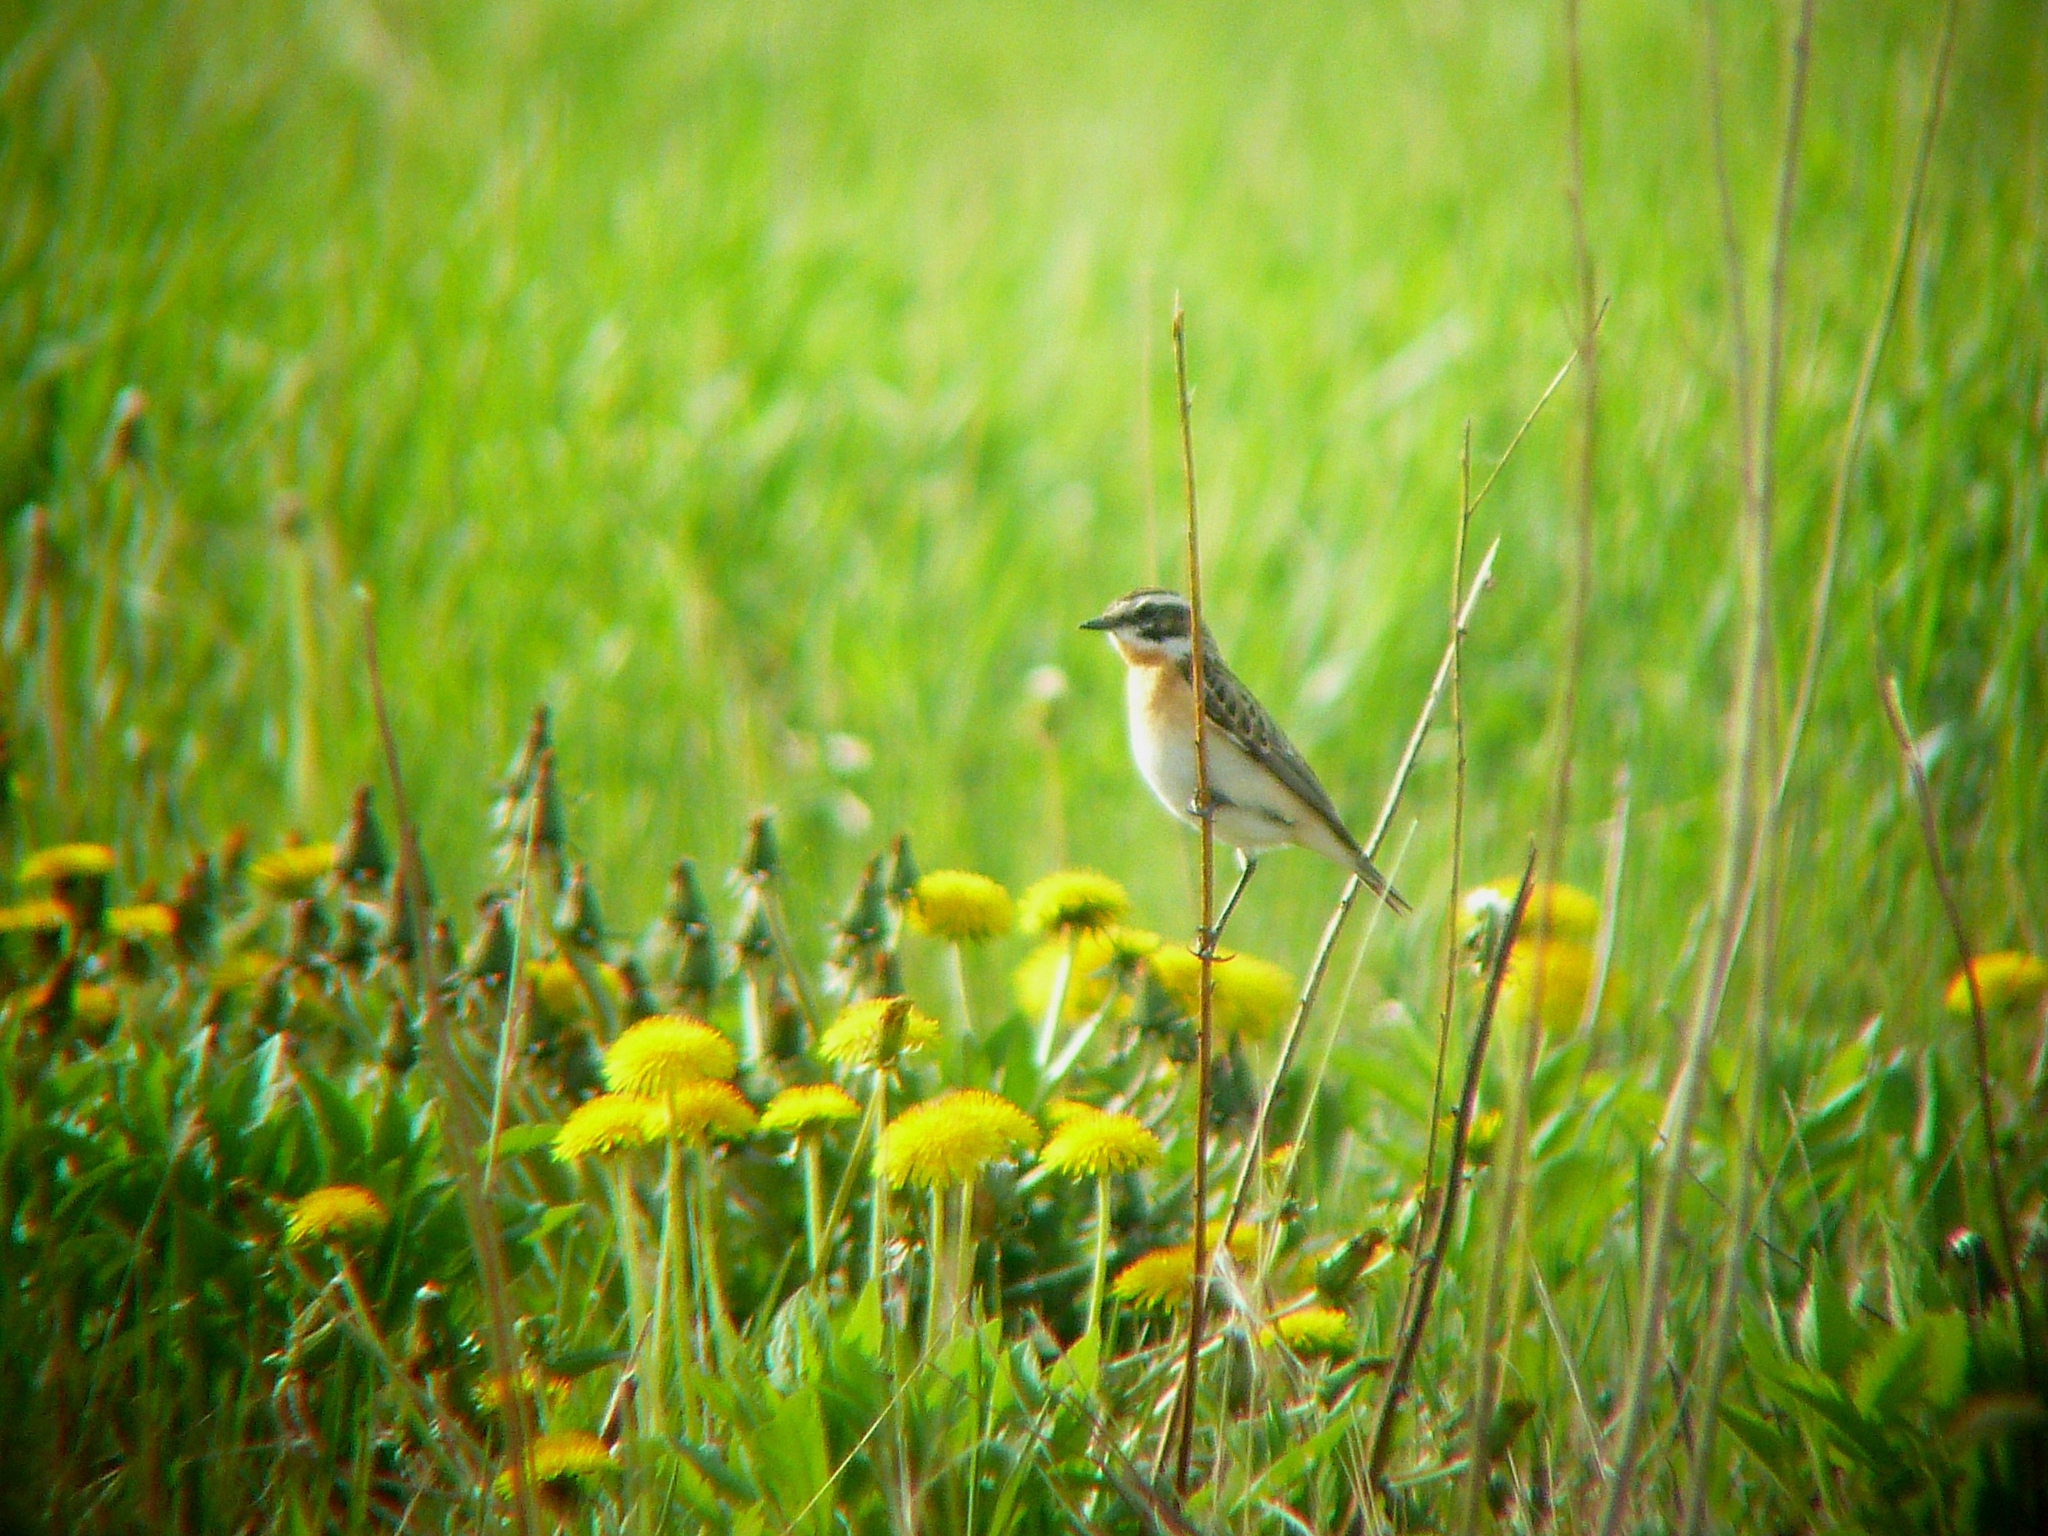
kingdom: Animalia
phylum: Chordata
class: Aves
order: Passeriformes
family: Muscicapidae
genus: Saxicola
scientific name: Saxicola rubetra
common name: Whinchat
